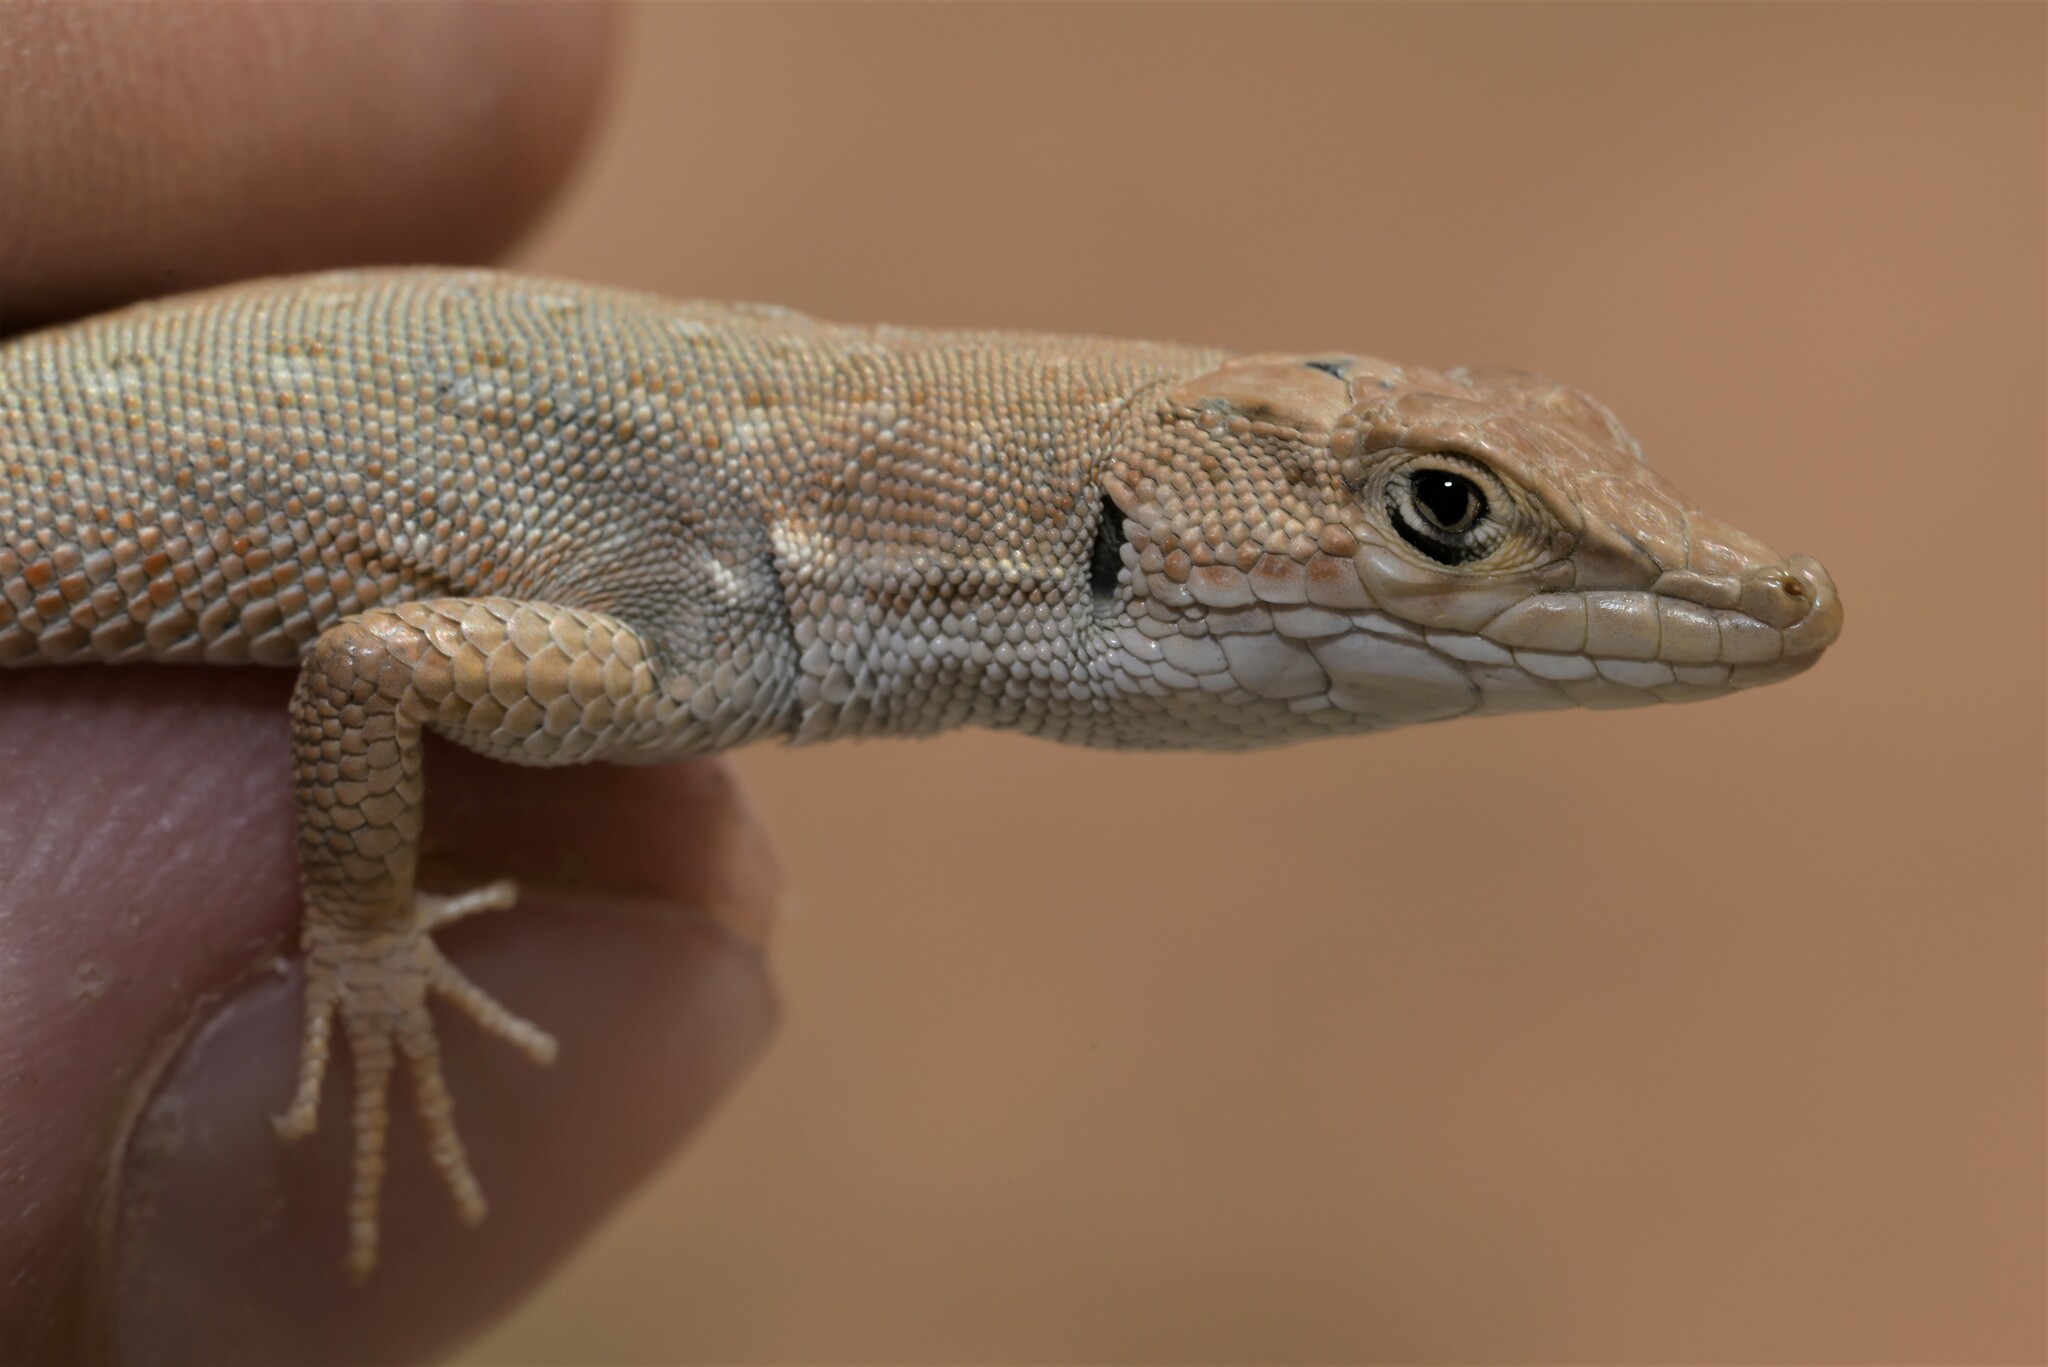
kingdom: Animalia
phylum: Chordata
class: Squamata
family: Lacertidae
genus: Mesalina
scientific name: Mesalina guttulata
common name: Desert lacerta
